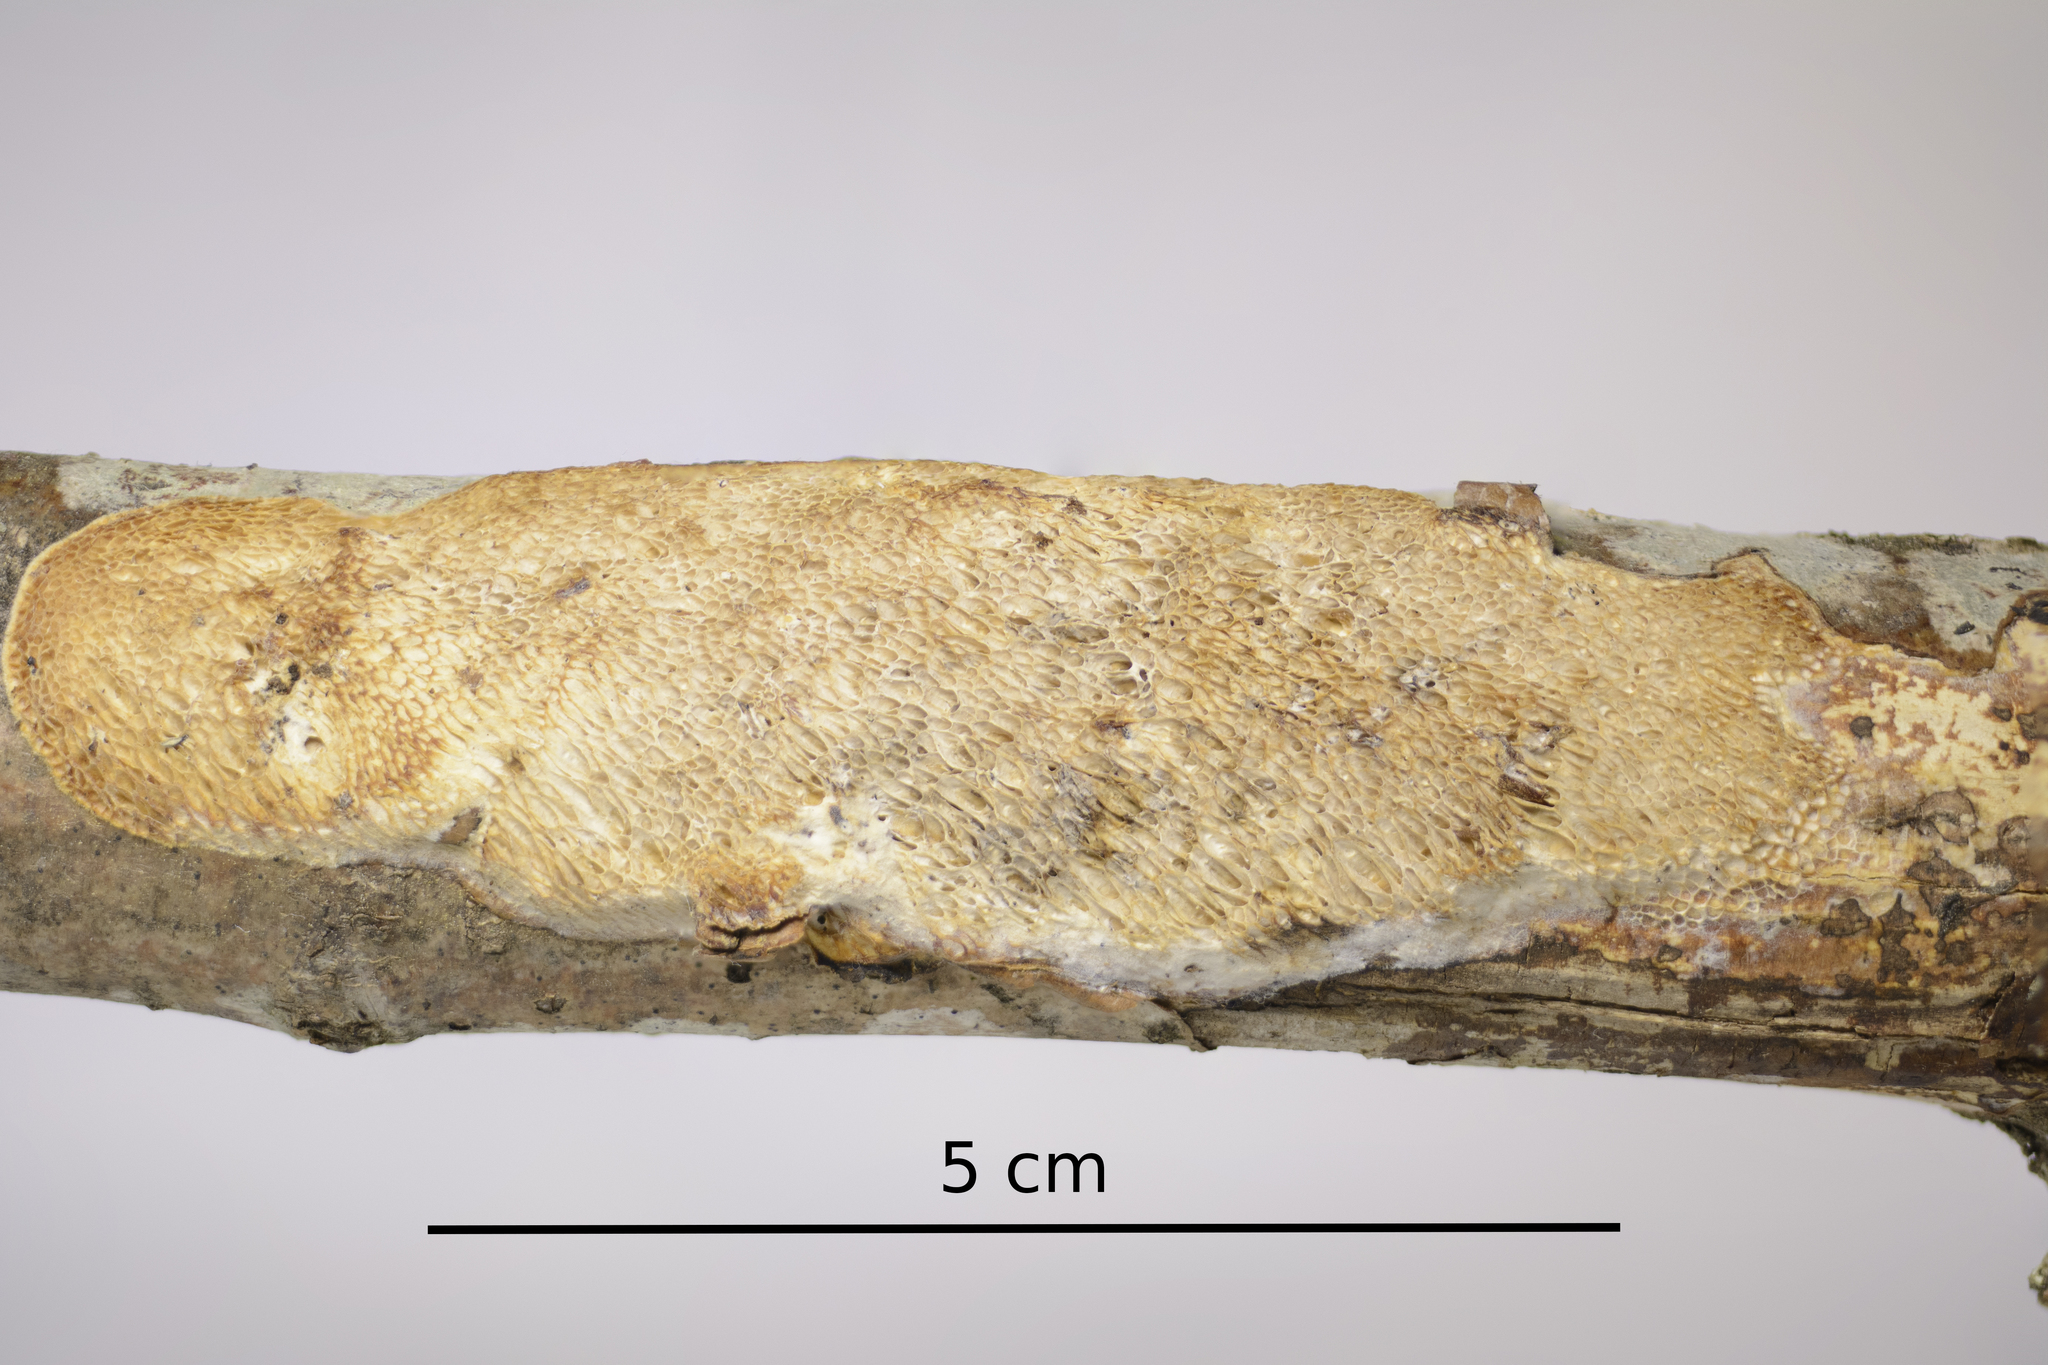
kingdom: Fungi
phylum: Basidiomycota
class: Agaricomycetes
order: Polyporales
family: Polyporaceae
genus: Szczepkamyces
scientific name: Szczepkamyces campestris
